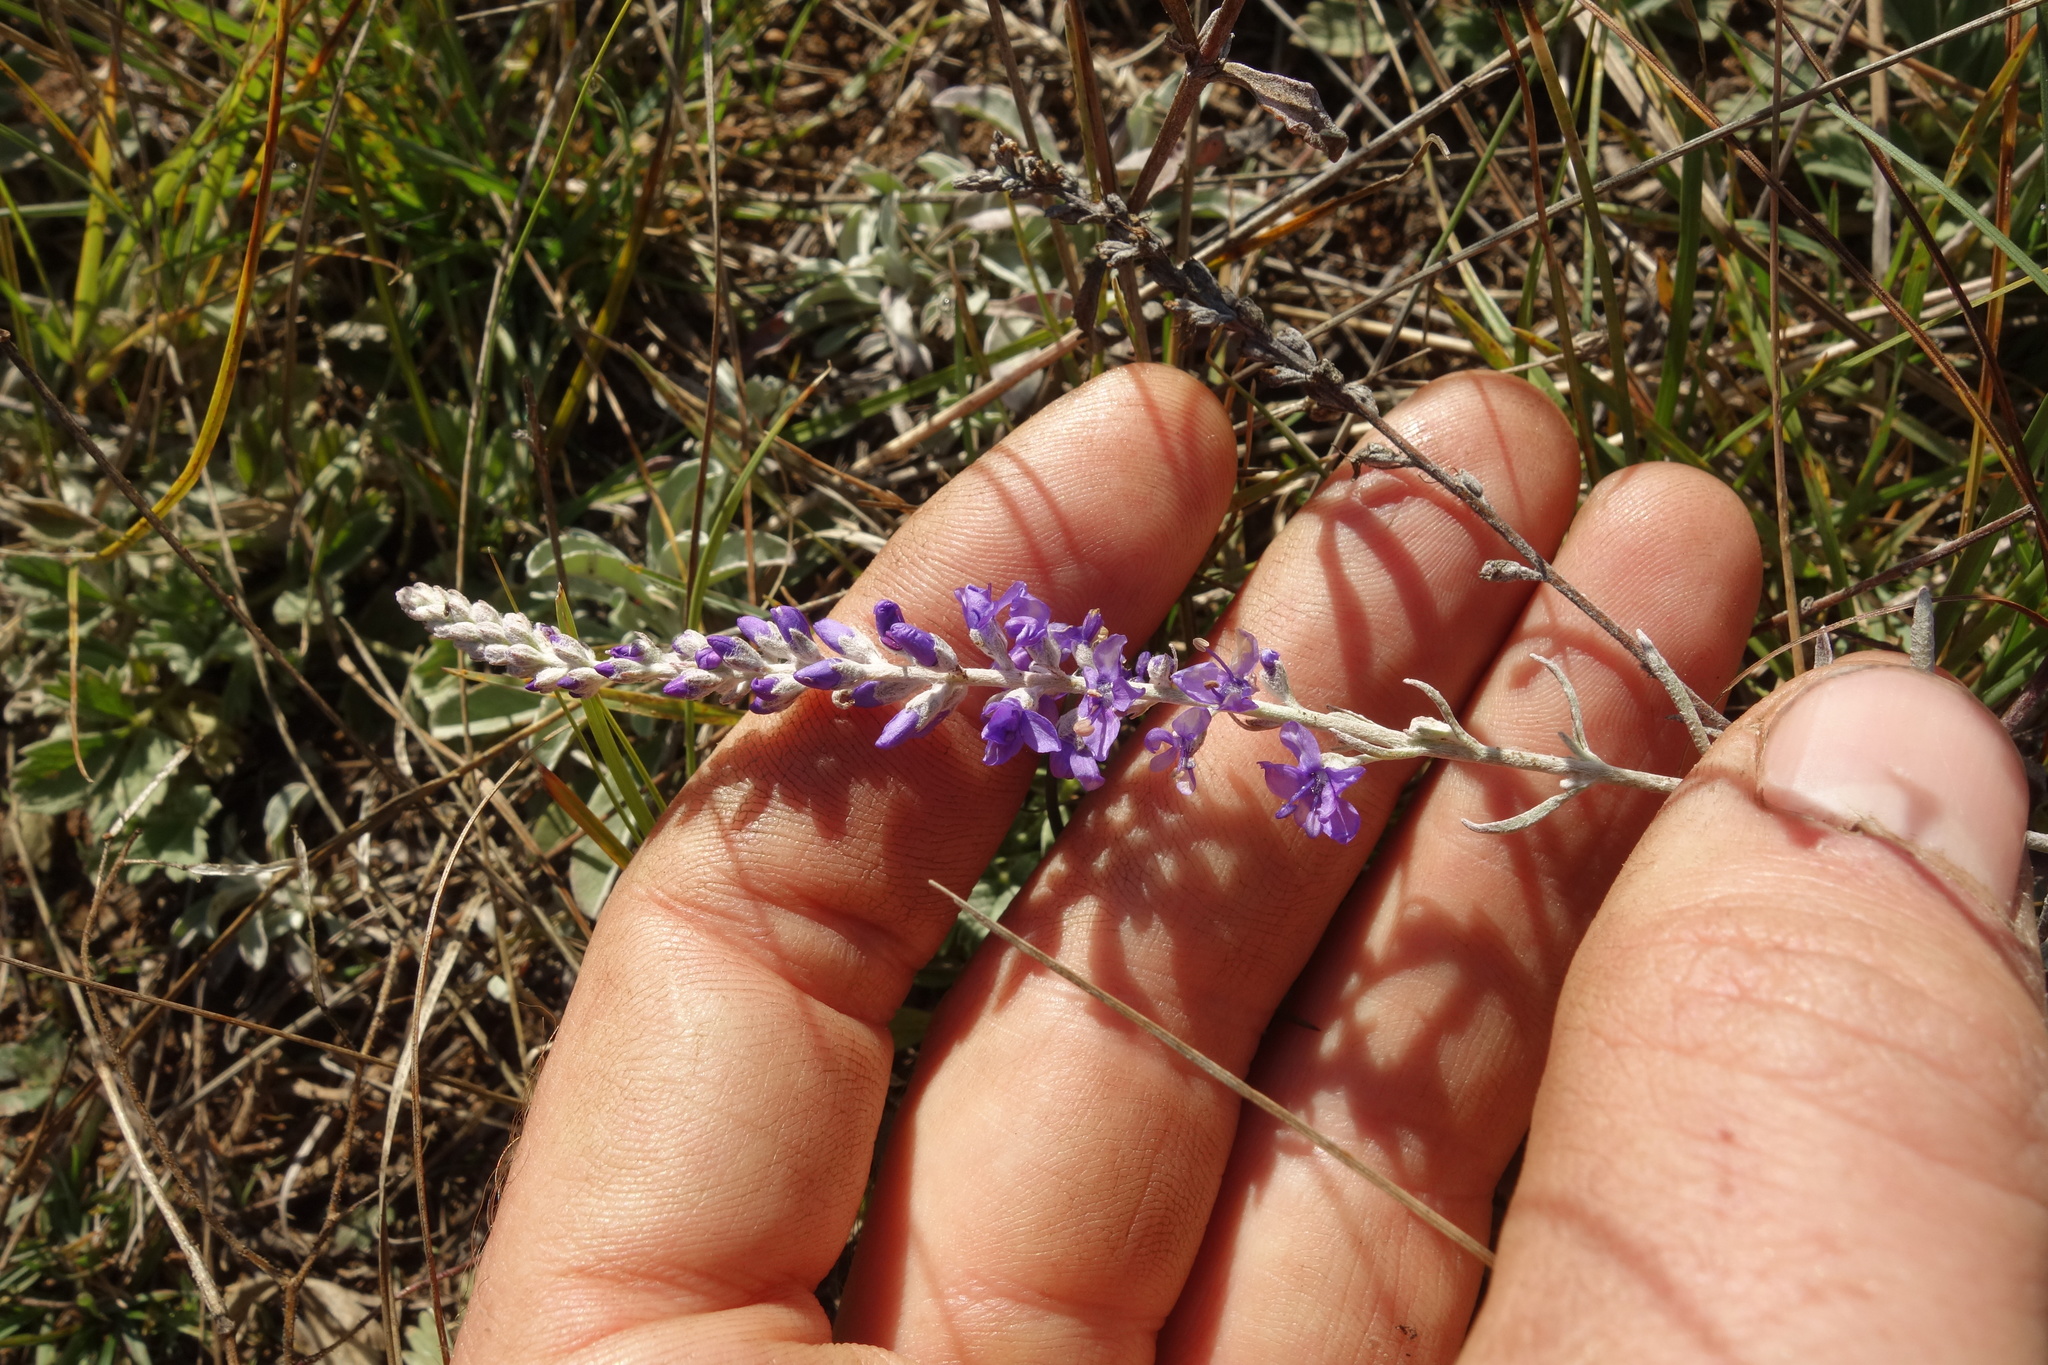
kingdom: Plantae
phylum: Tracheophyta
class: Magnoliopsida
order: Lamiales
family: Plantaginaceae
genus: Veronica
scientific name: Veronica incana
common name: Silver speedwell
